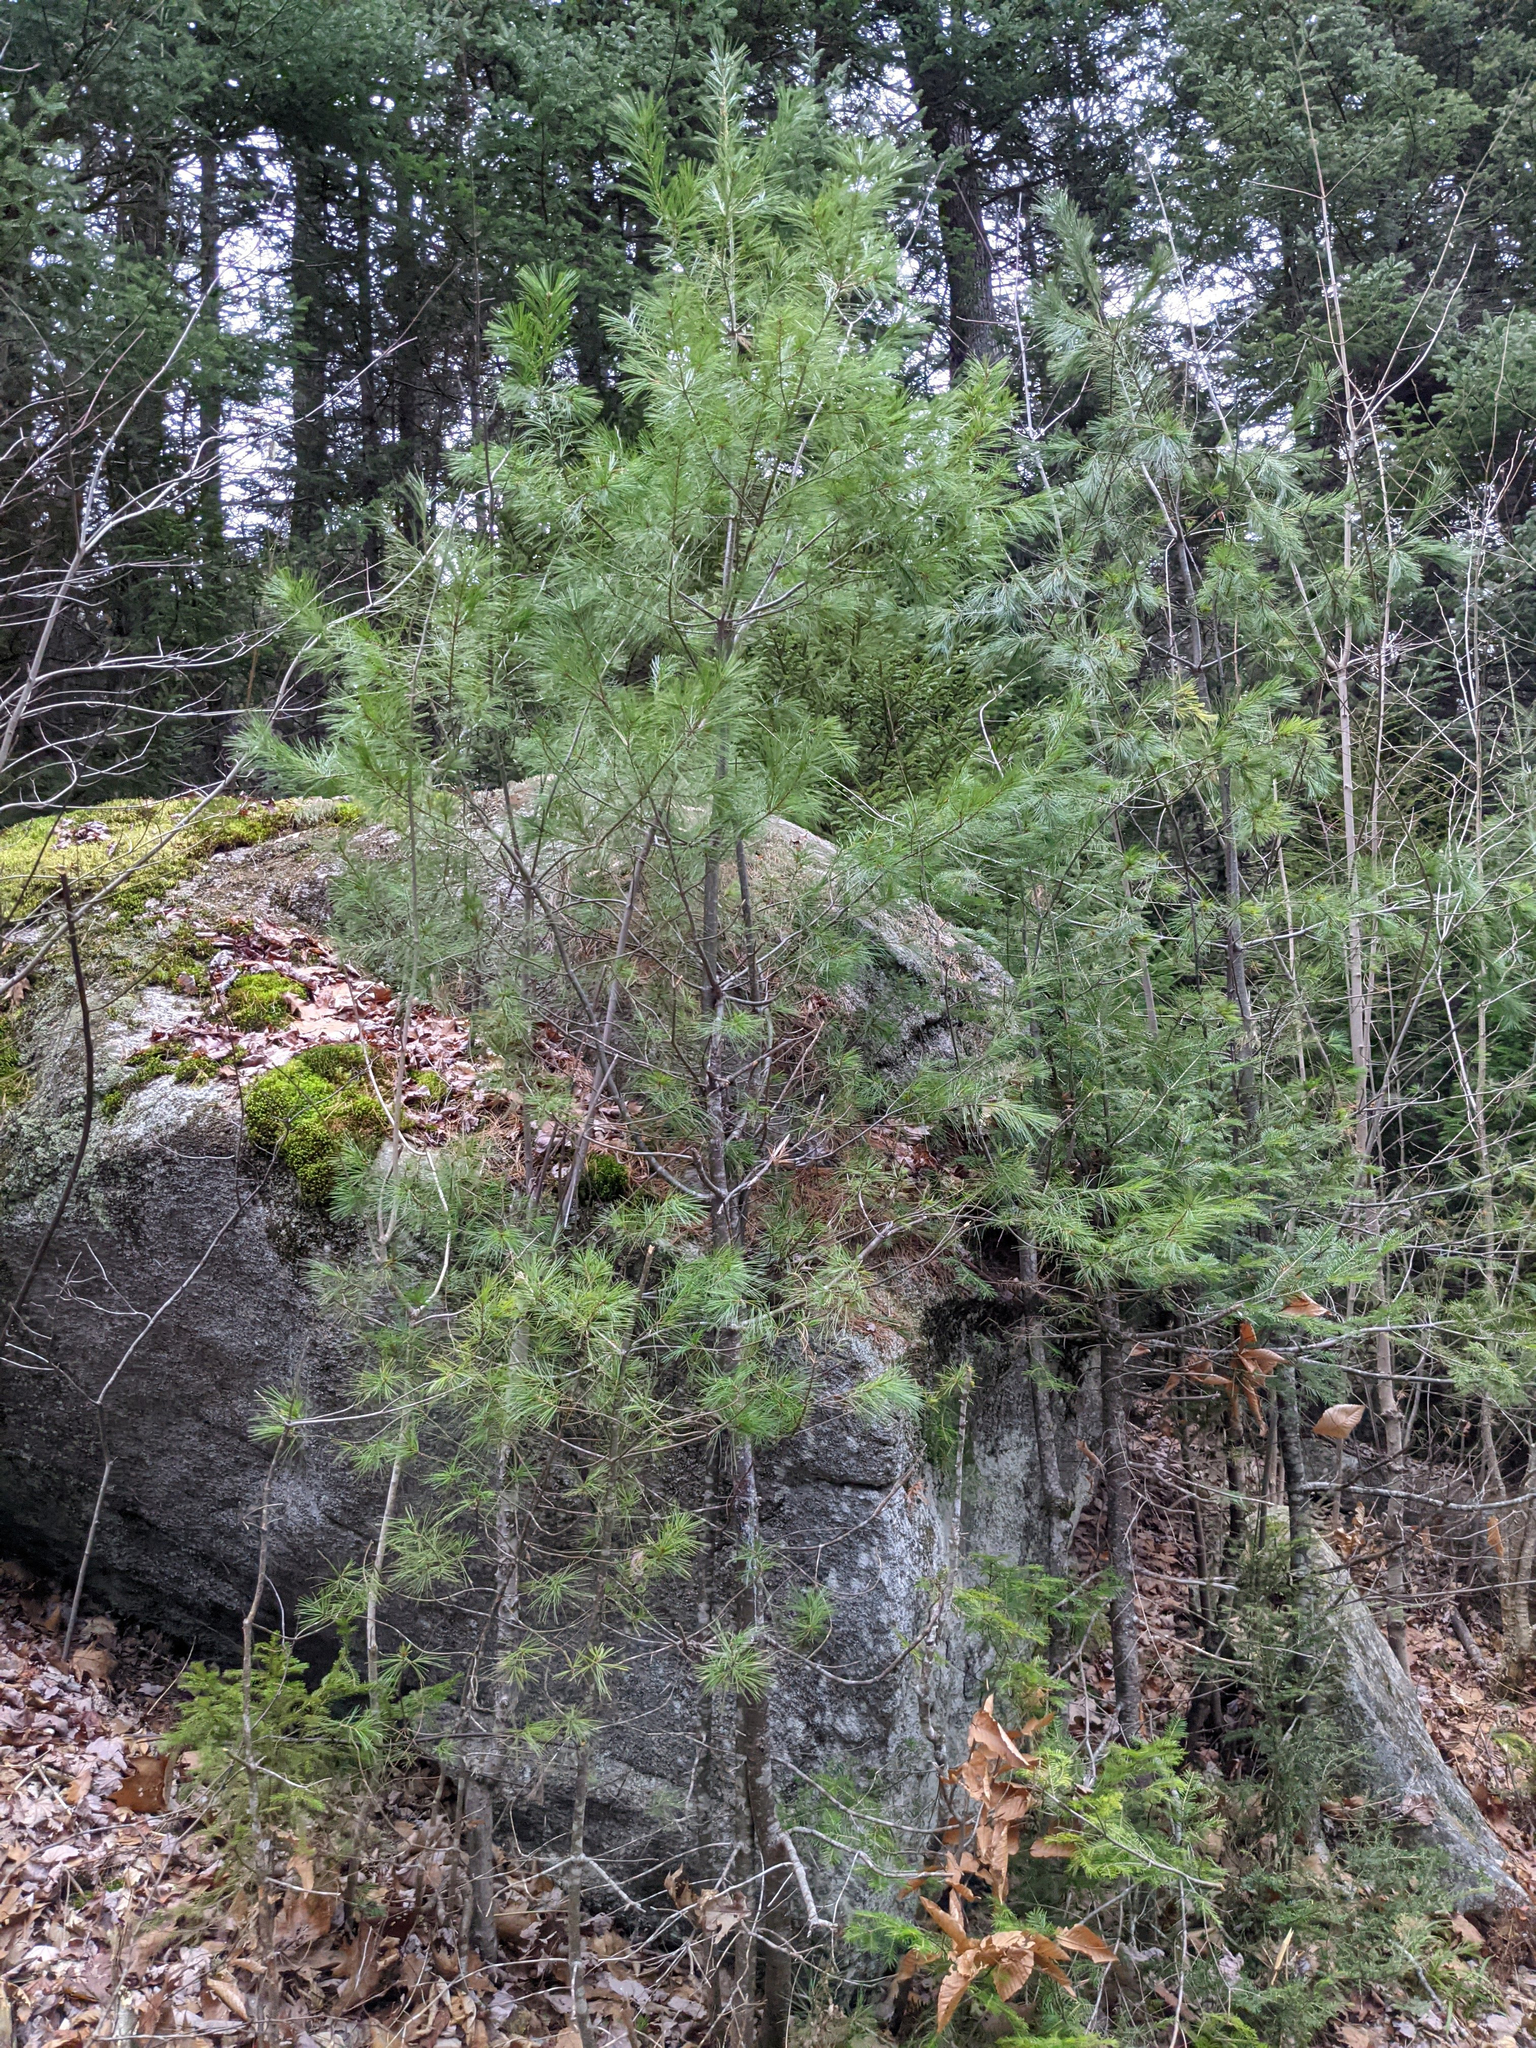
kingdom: Plantae
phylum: Tracheophyta
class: Pinopsida
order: Pinales
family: Pinaceae
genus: Pinus
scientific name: Pinus strobus
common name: Weymouth pine
